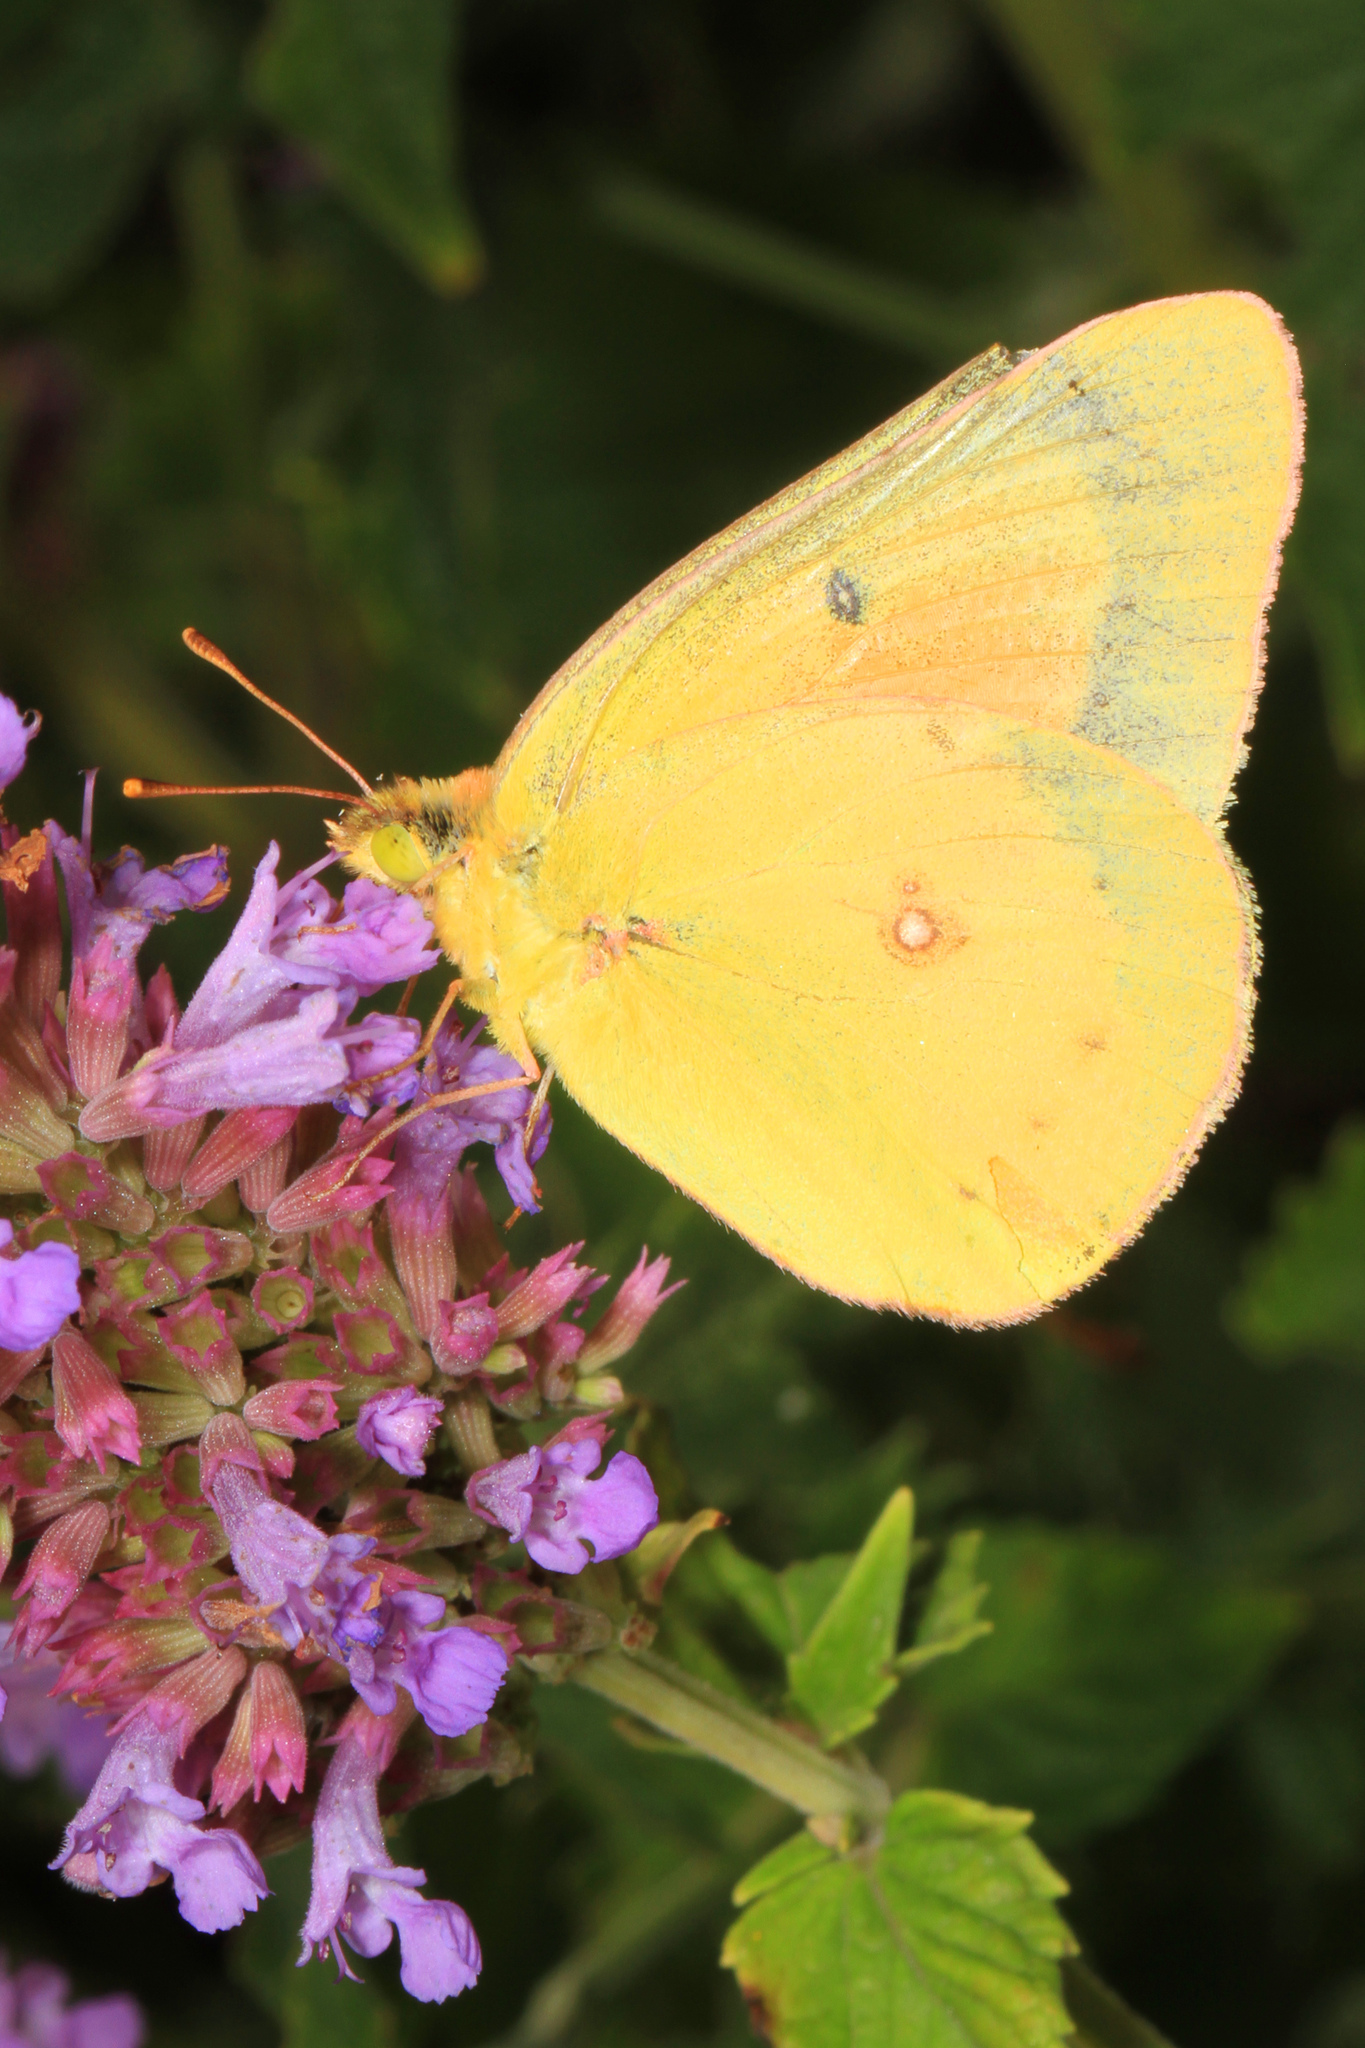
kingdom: Animalia
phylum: Arthropoda
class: Insecta
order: Lepidoptera
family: Pieridae
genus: Colias
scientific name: Colias eurytheme
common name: Alfalfa butterfly
